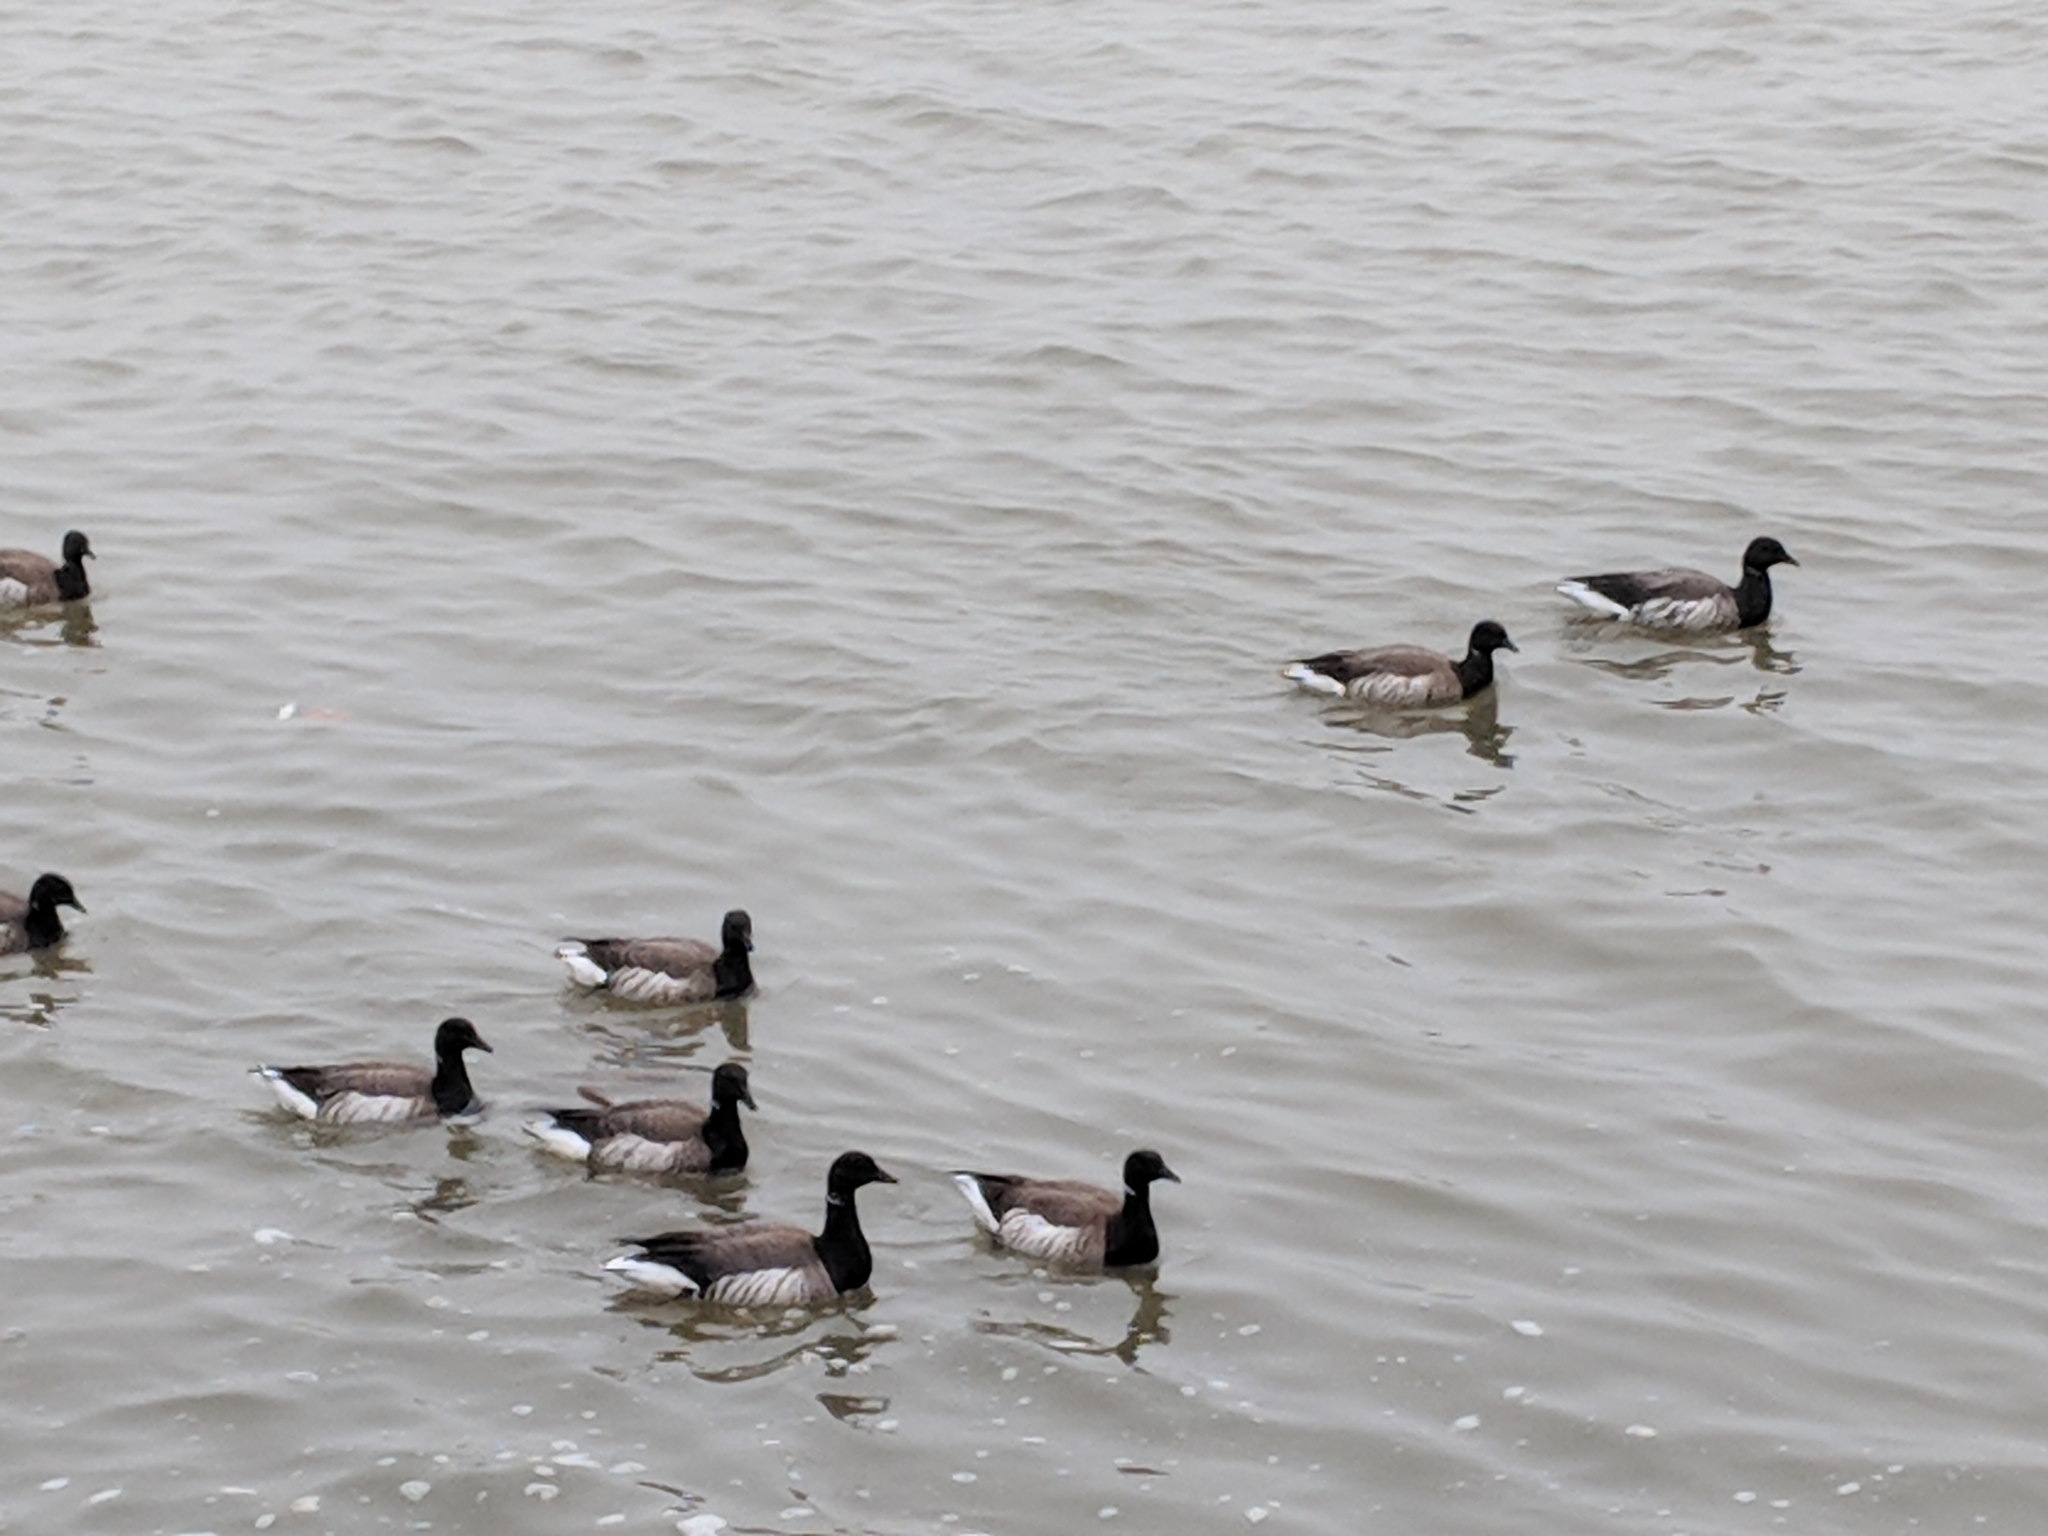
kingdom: Animalia
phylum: Chordata
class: Aves
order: Anseriformes
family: Anatidae
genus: Branta
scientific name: Branta bernicla
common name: Brant goose
